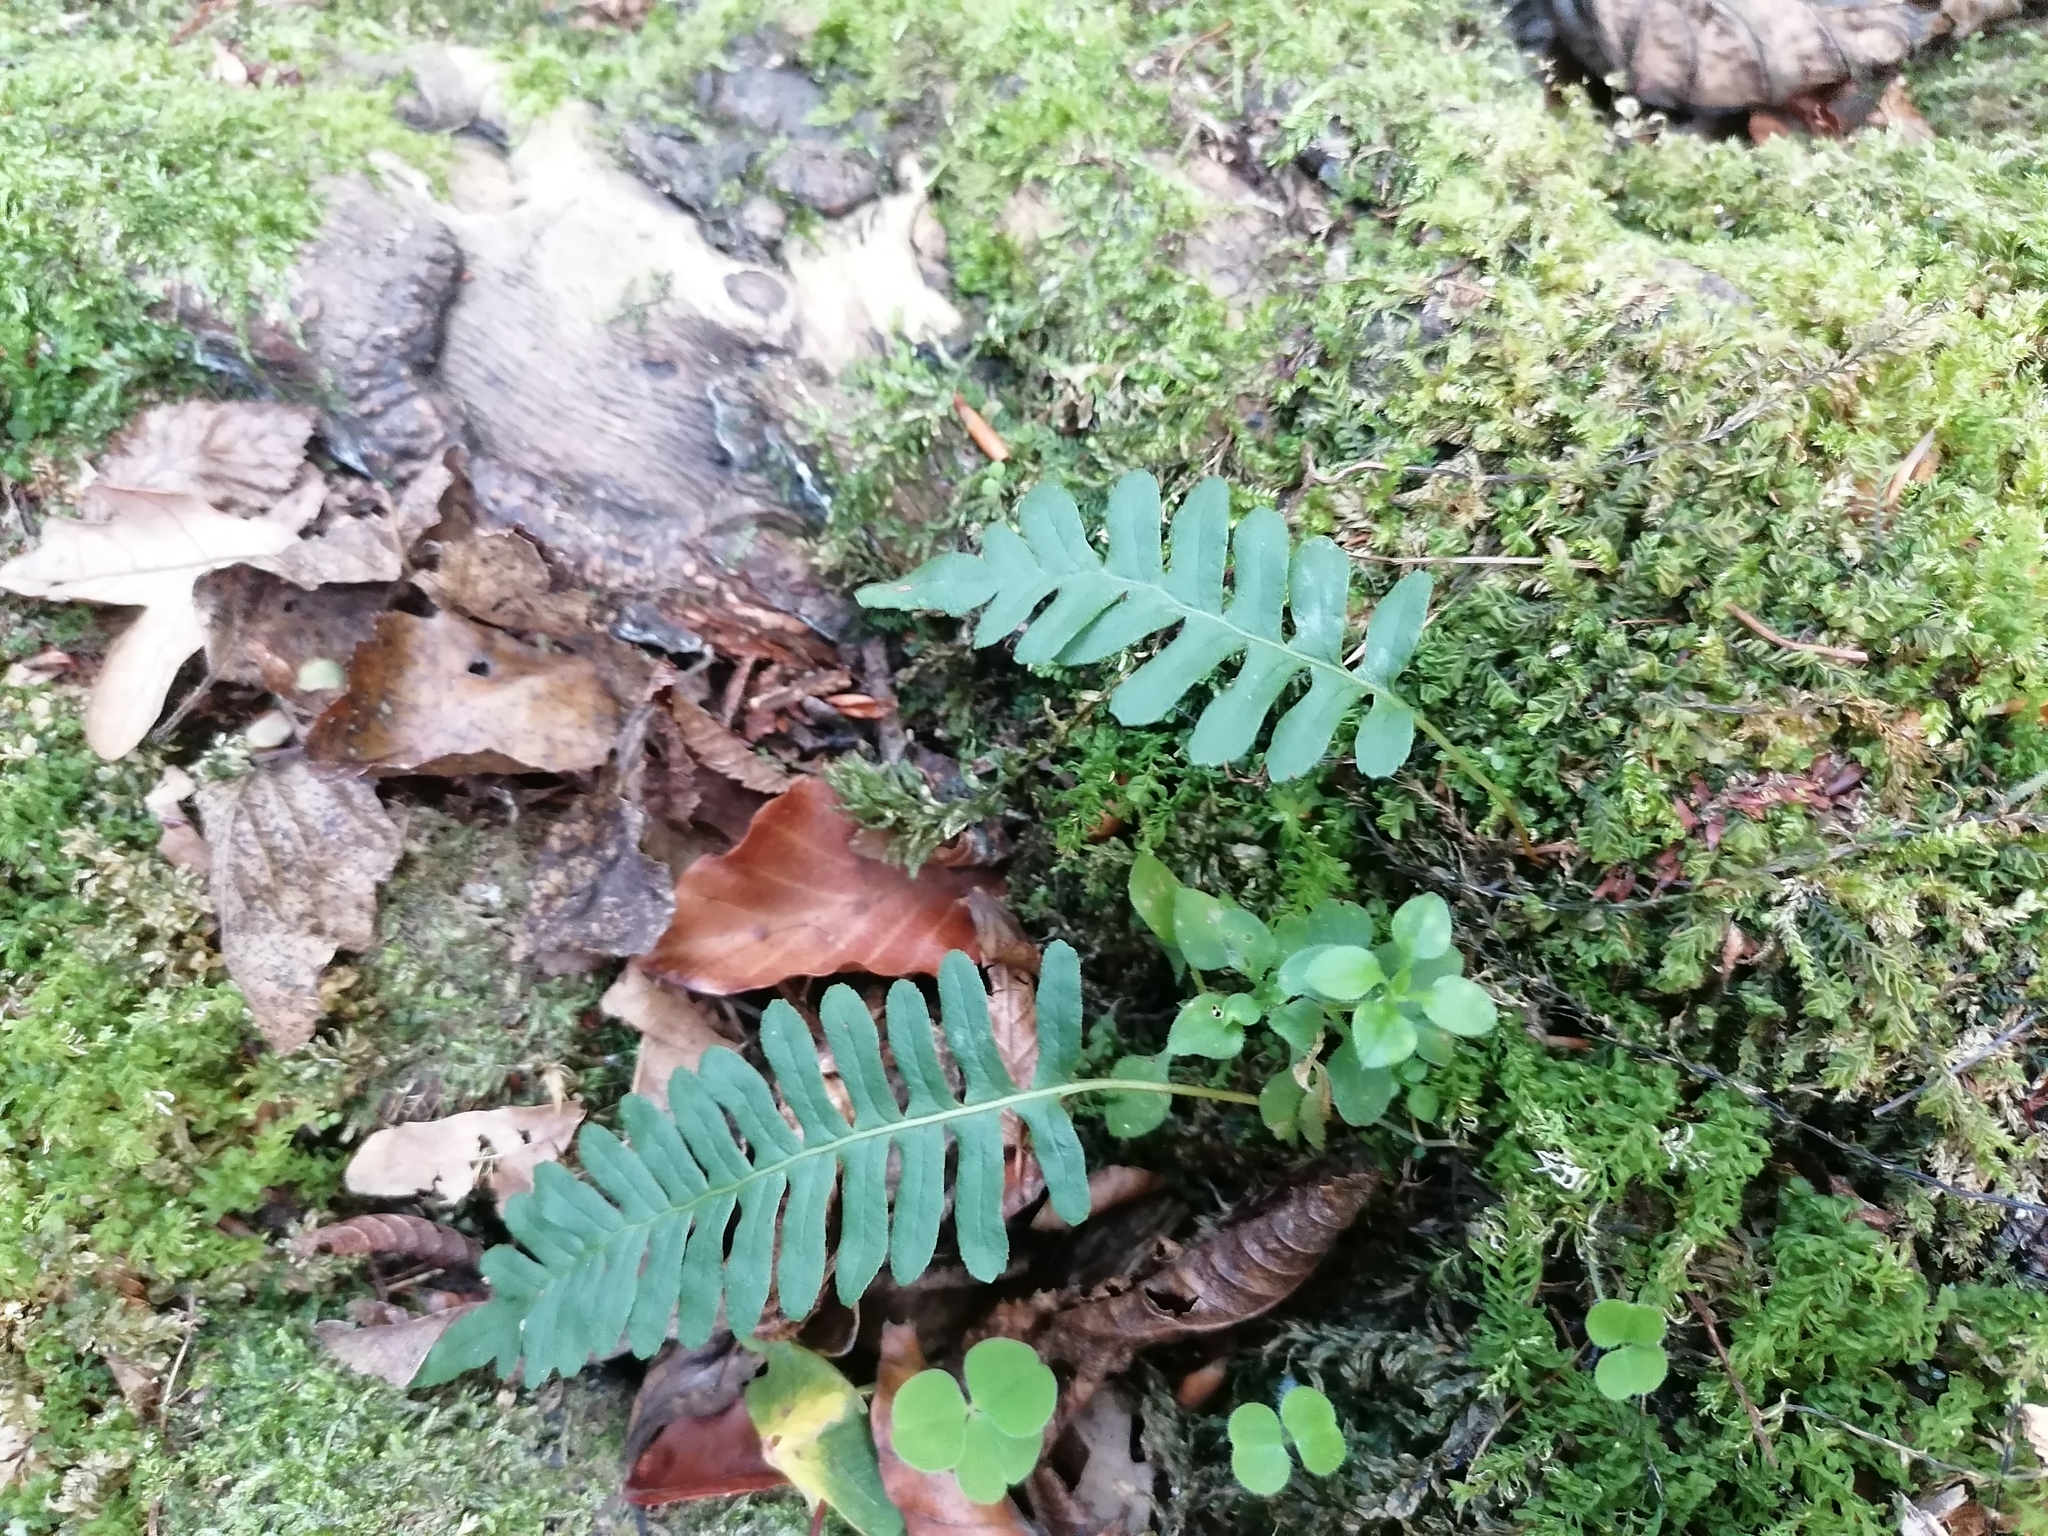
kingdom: Plantae
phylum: Tracheophyta
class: Polypodiopsida
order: Polypodiales
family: Polypodiaceae
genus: Polypodium
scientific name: Polypodium vulgare
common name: Common polypody
